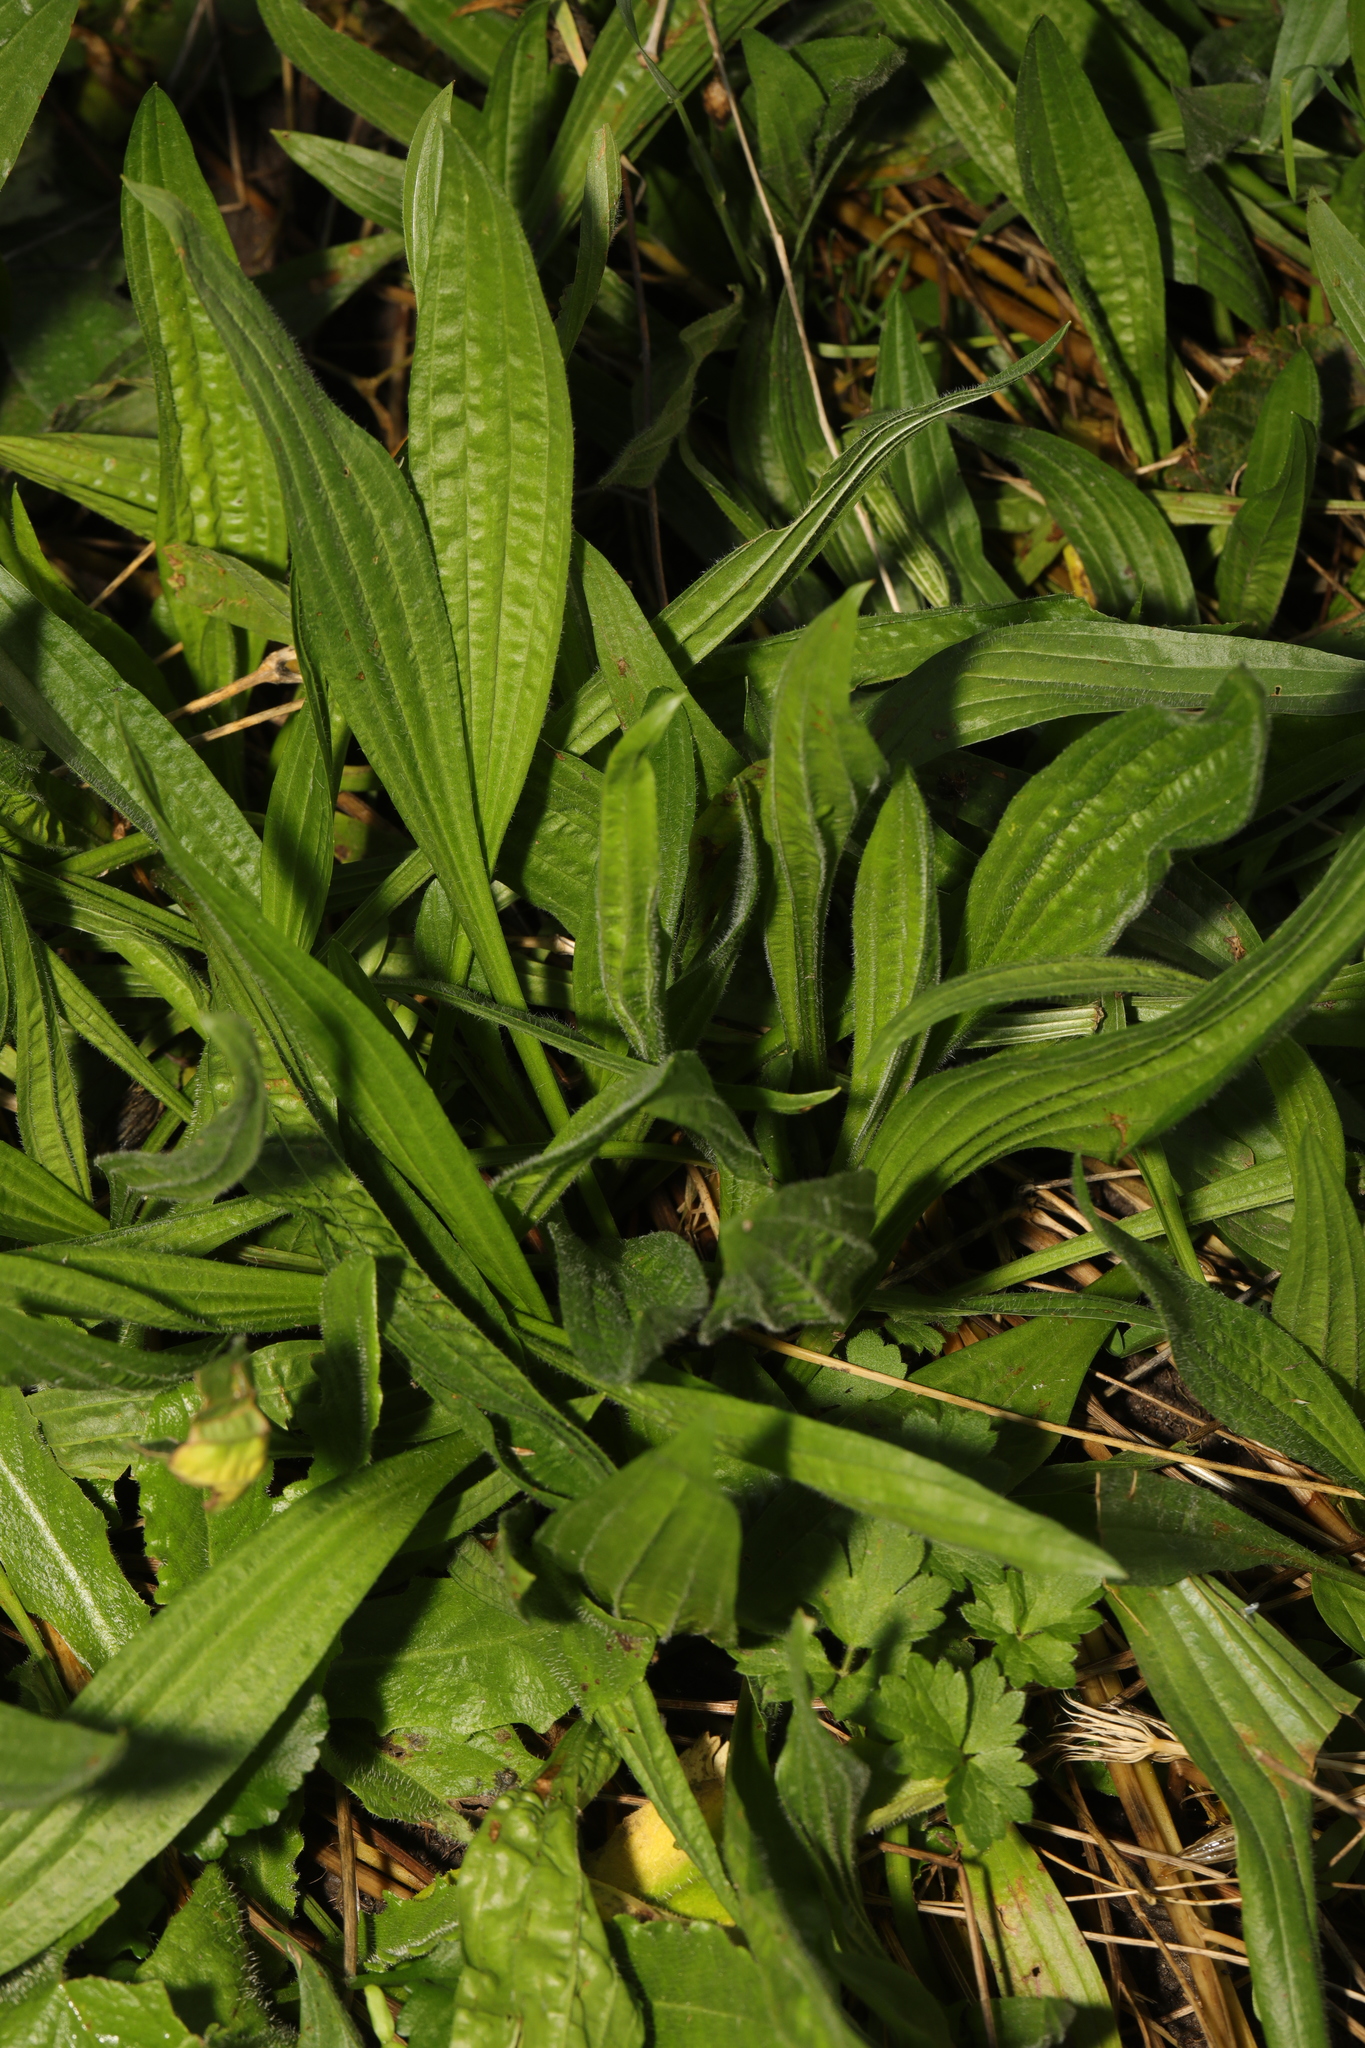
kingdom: Plantae
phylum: Tracheophyta
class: Magnoliopsida
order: Lamiales
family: Plantaginaceae
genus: Plantago
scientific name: Plantago lanceolata
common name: Ribwort plantain
